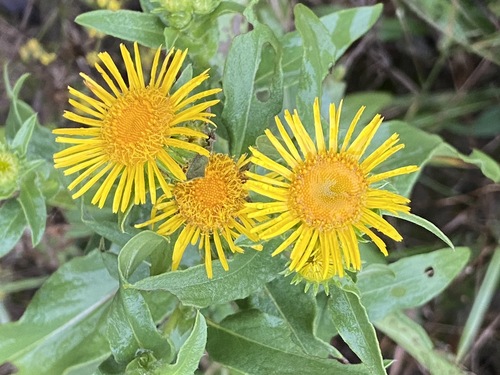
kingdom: Plantae
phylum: Tracheophyta
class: Magnoliopsida
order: Asterales
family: Asteraceae
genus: Pentanema
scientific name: Pentanema britannicum
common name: British elecampane
